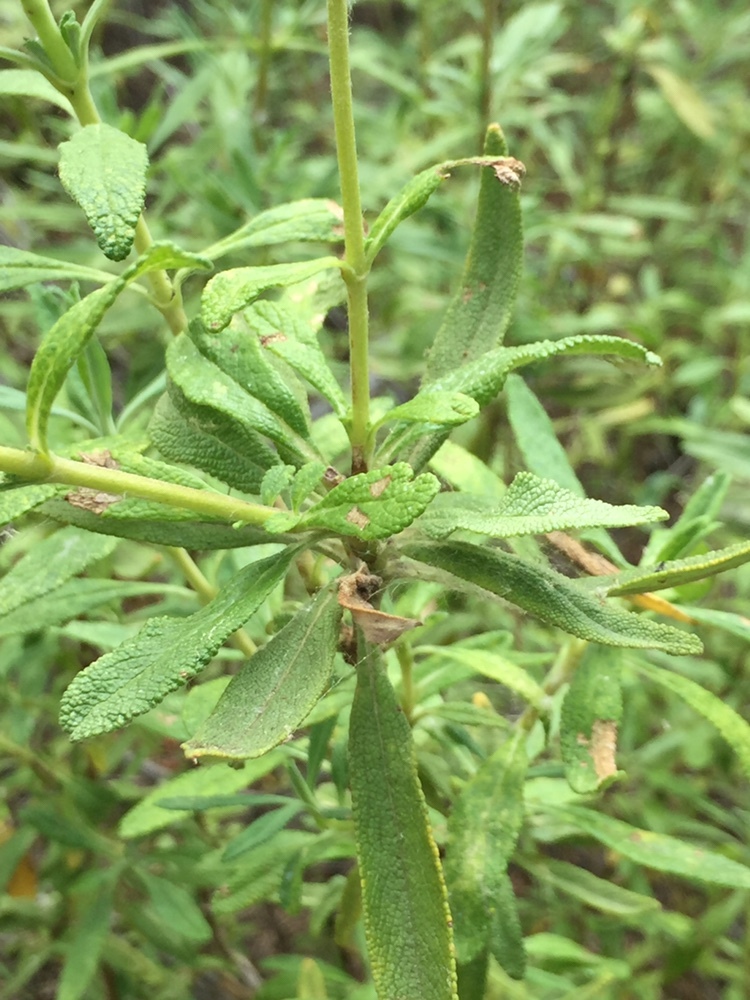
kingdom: Plantae
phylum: Tracheophyta
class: Magnoliopsida
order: Lamiales
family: Lamiaceae
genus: Salvia
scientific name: Salvia mellifera
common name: Black sage
